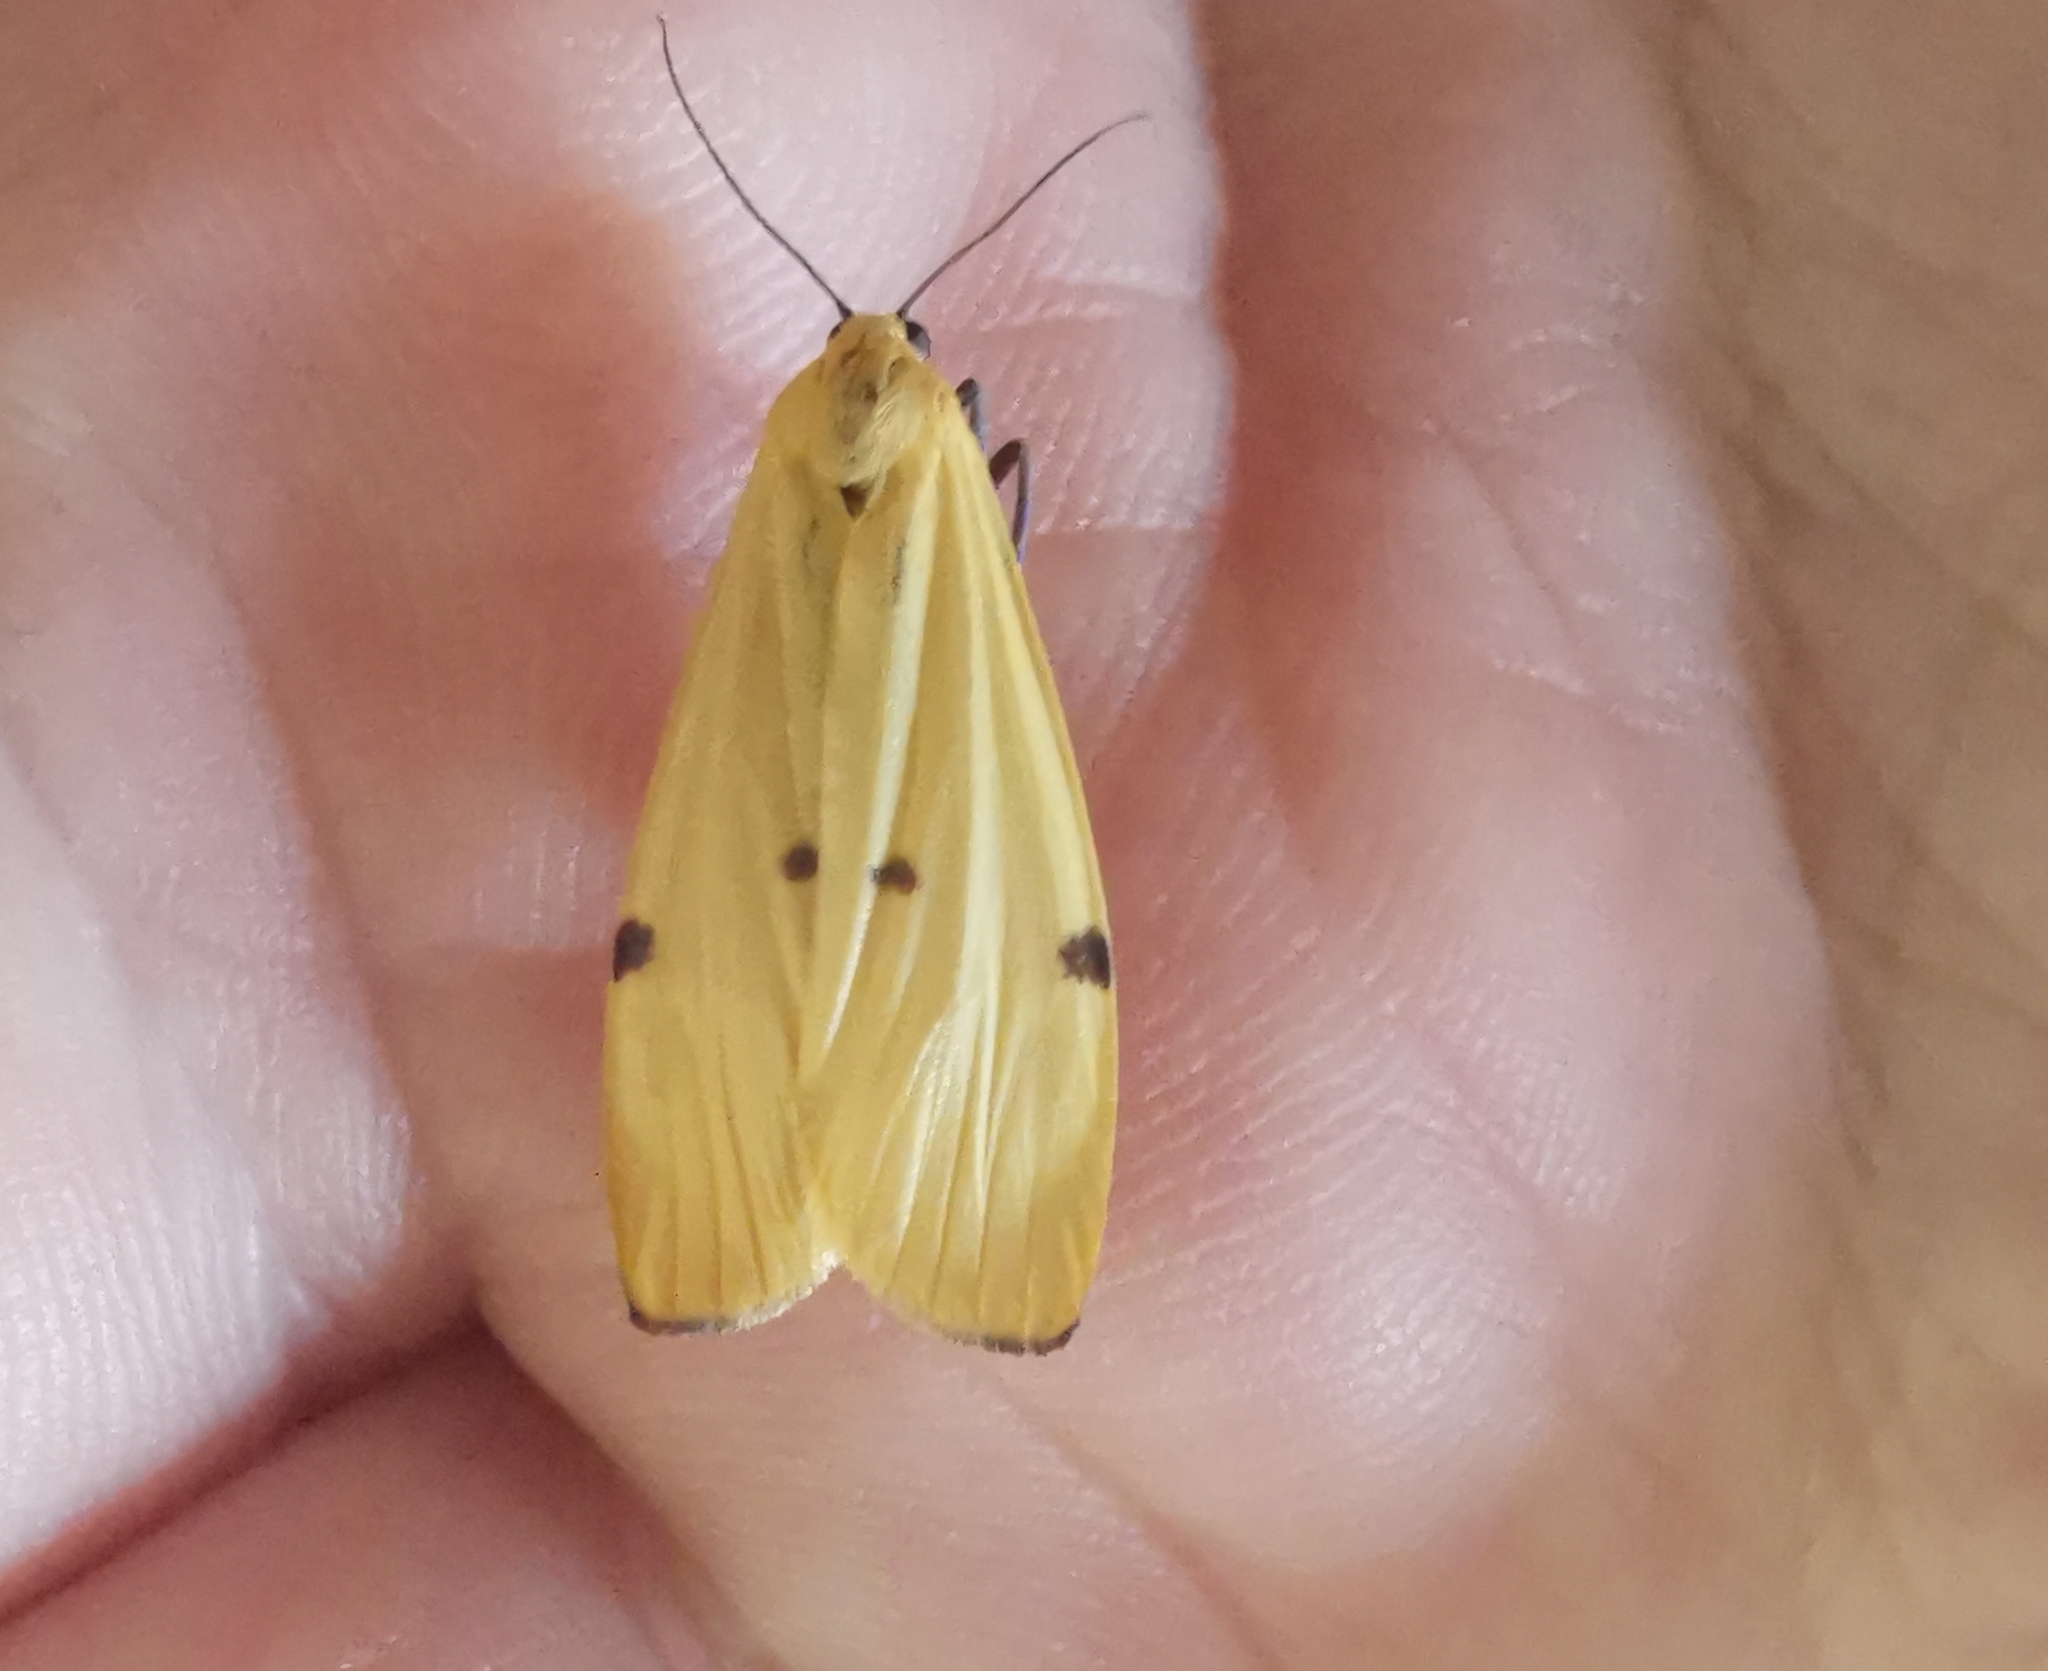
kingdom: Animalia
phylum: Arthropoda
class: Insecta
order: Lepidoptera
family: Erebidae
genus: Lithosia
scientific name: Lithosia quadra
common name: Four-spotted footman
